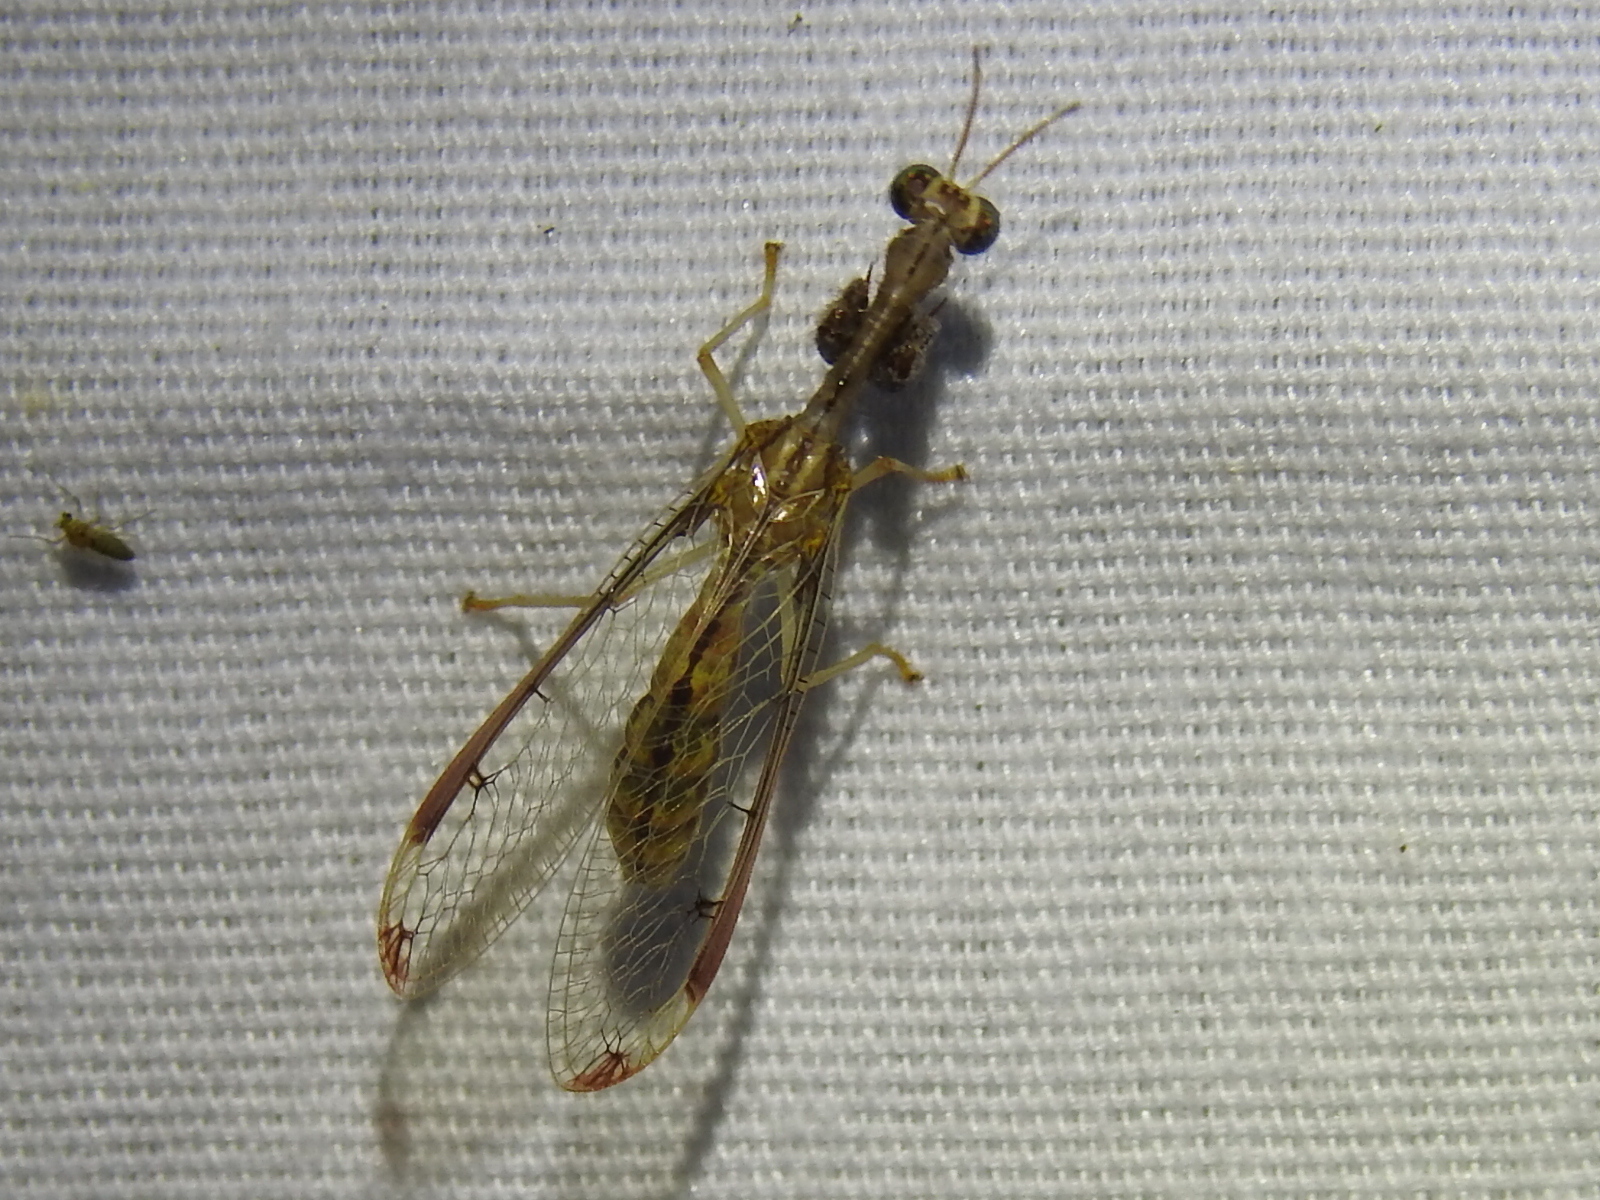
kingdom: Animalia
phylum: Arthropoda
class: Insecta
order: Neuroptera
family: Mantispidae
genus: Dicromantispa
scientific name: Dicromantispa interrupta
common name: Four-spotted mantidfly
